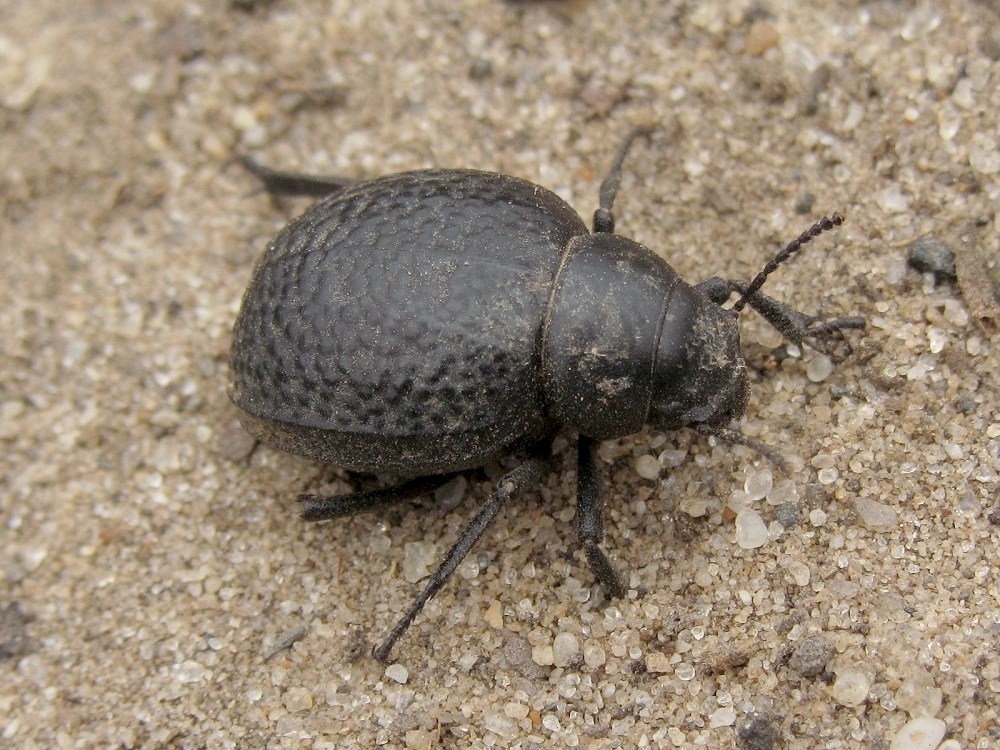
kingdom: Animalia
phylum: Arthropoda
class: Insecta
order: Coleoptera
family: Tenebrionidae
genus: Pimelia
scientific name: Pimelia subglobosa
